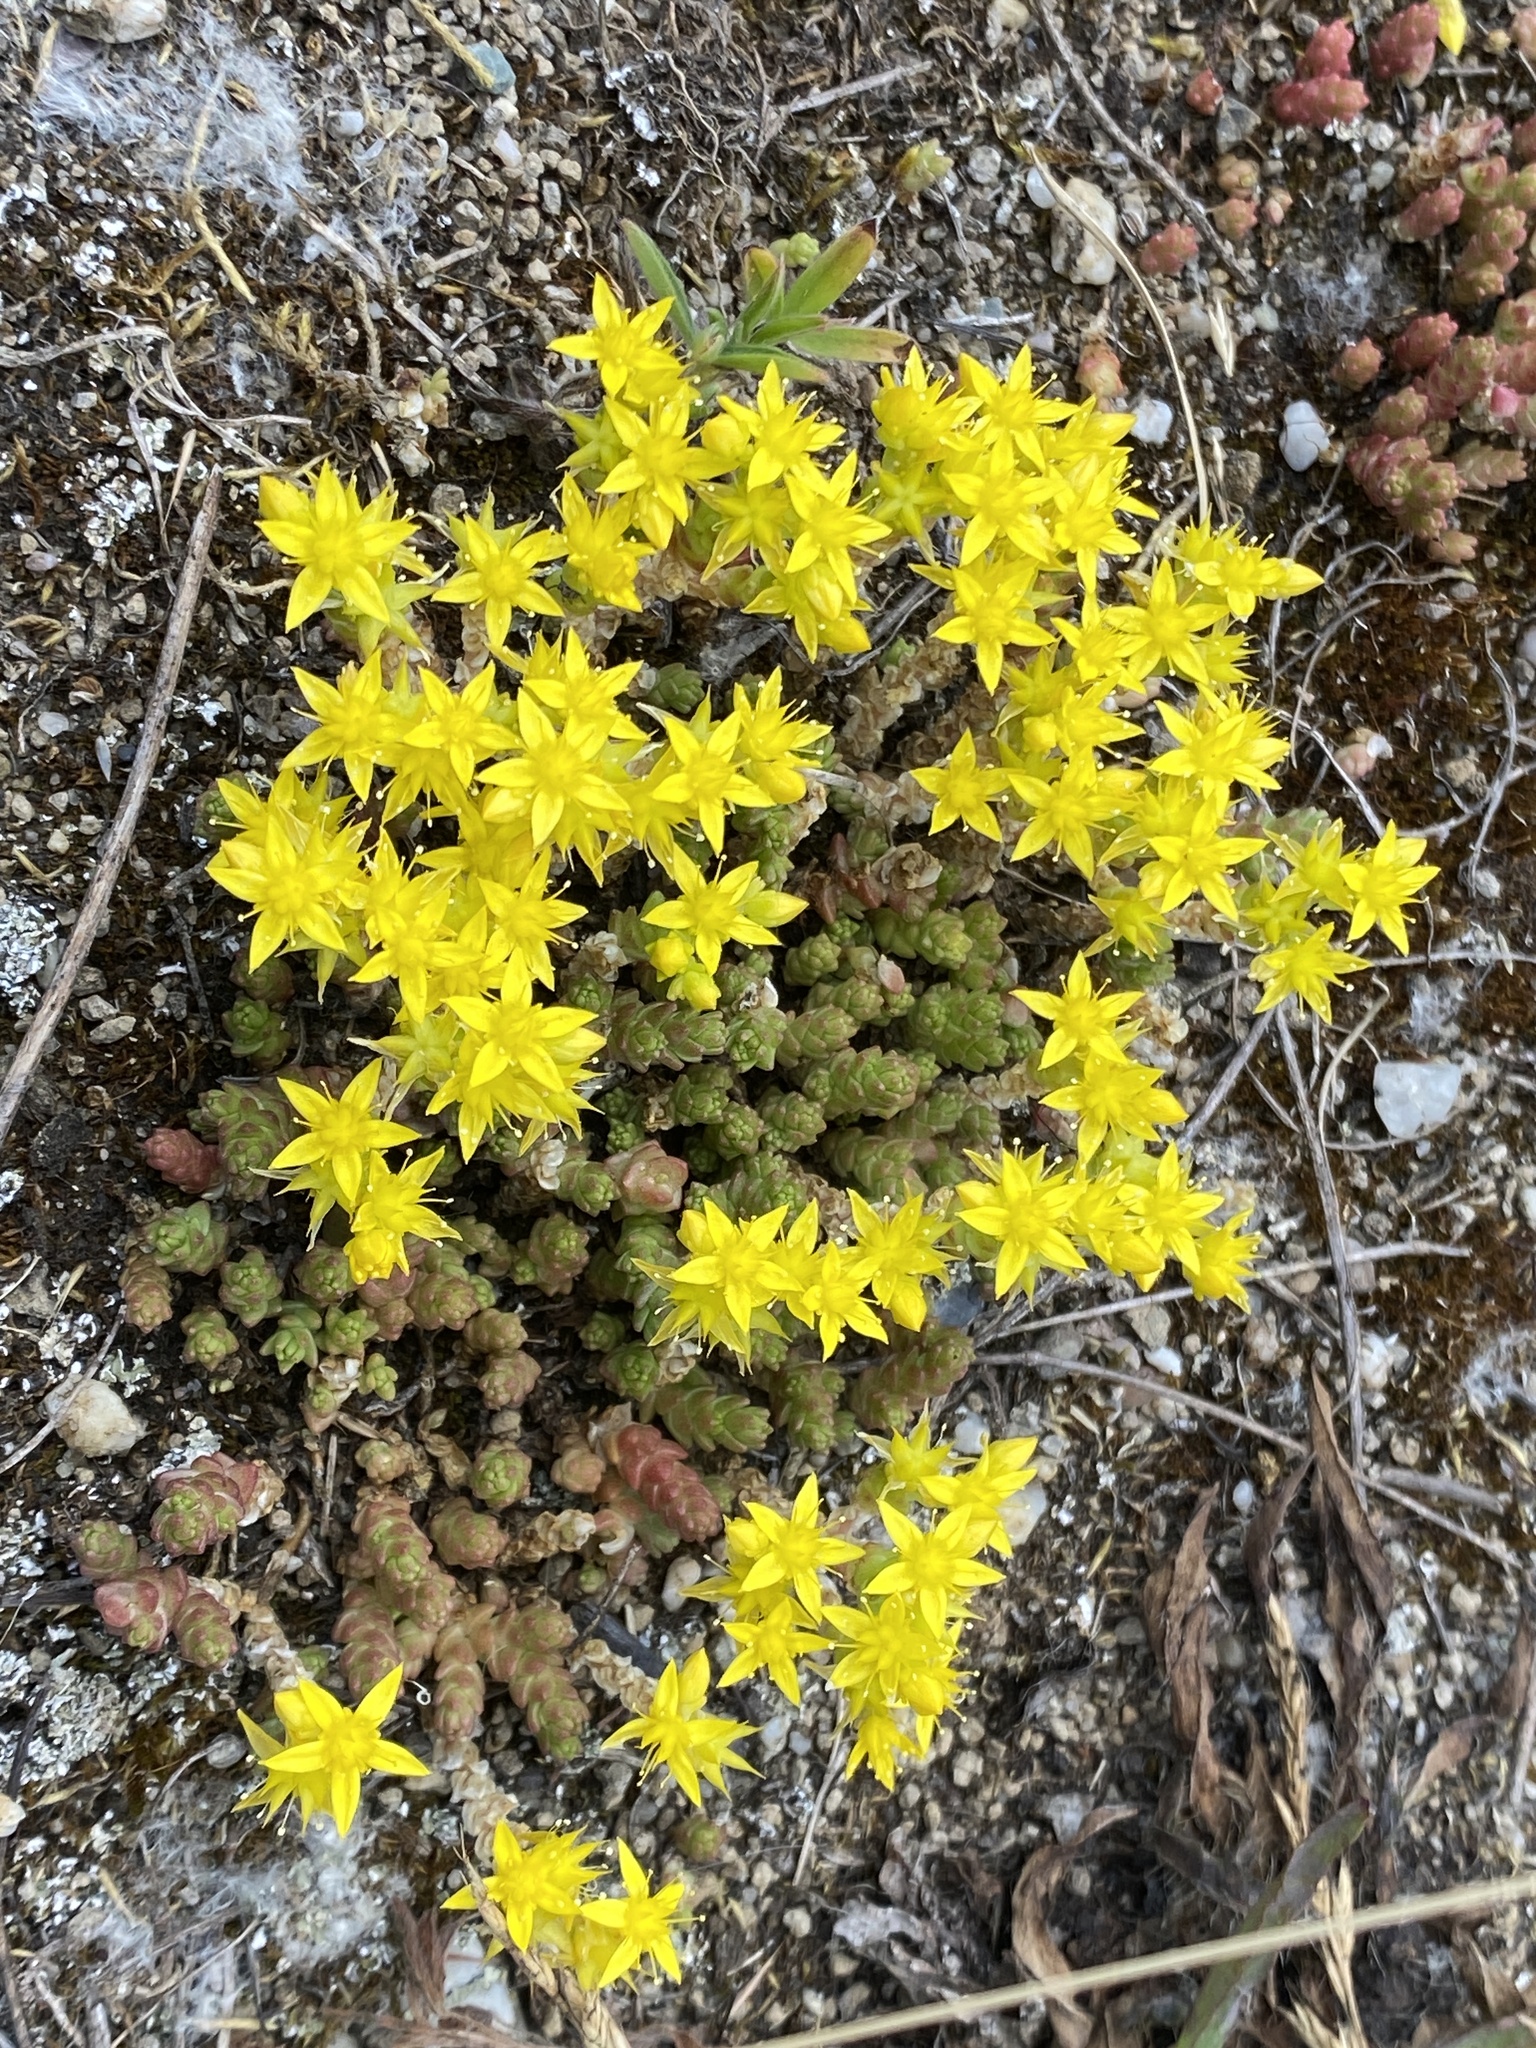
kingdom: Plantae
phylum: Tracheophyta
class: Magnoliopsida
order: Saxifragales
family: Crassulaceae
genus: Sedum
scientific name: Sedum acre
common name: Biting stonecrop
